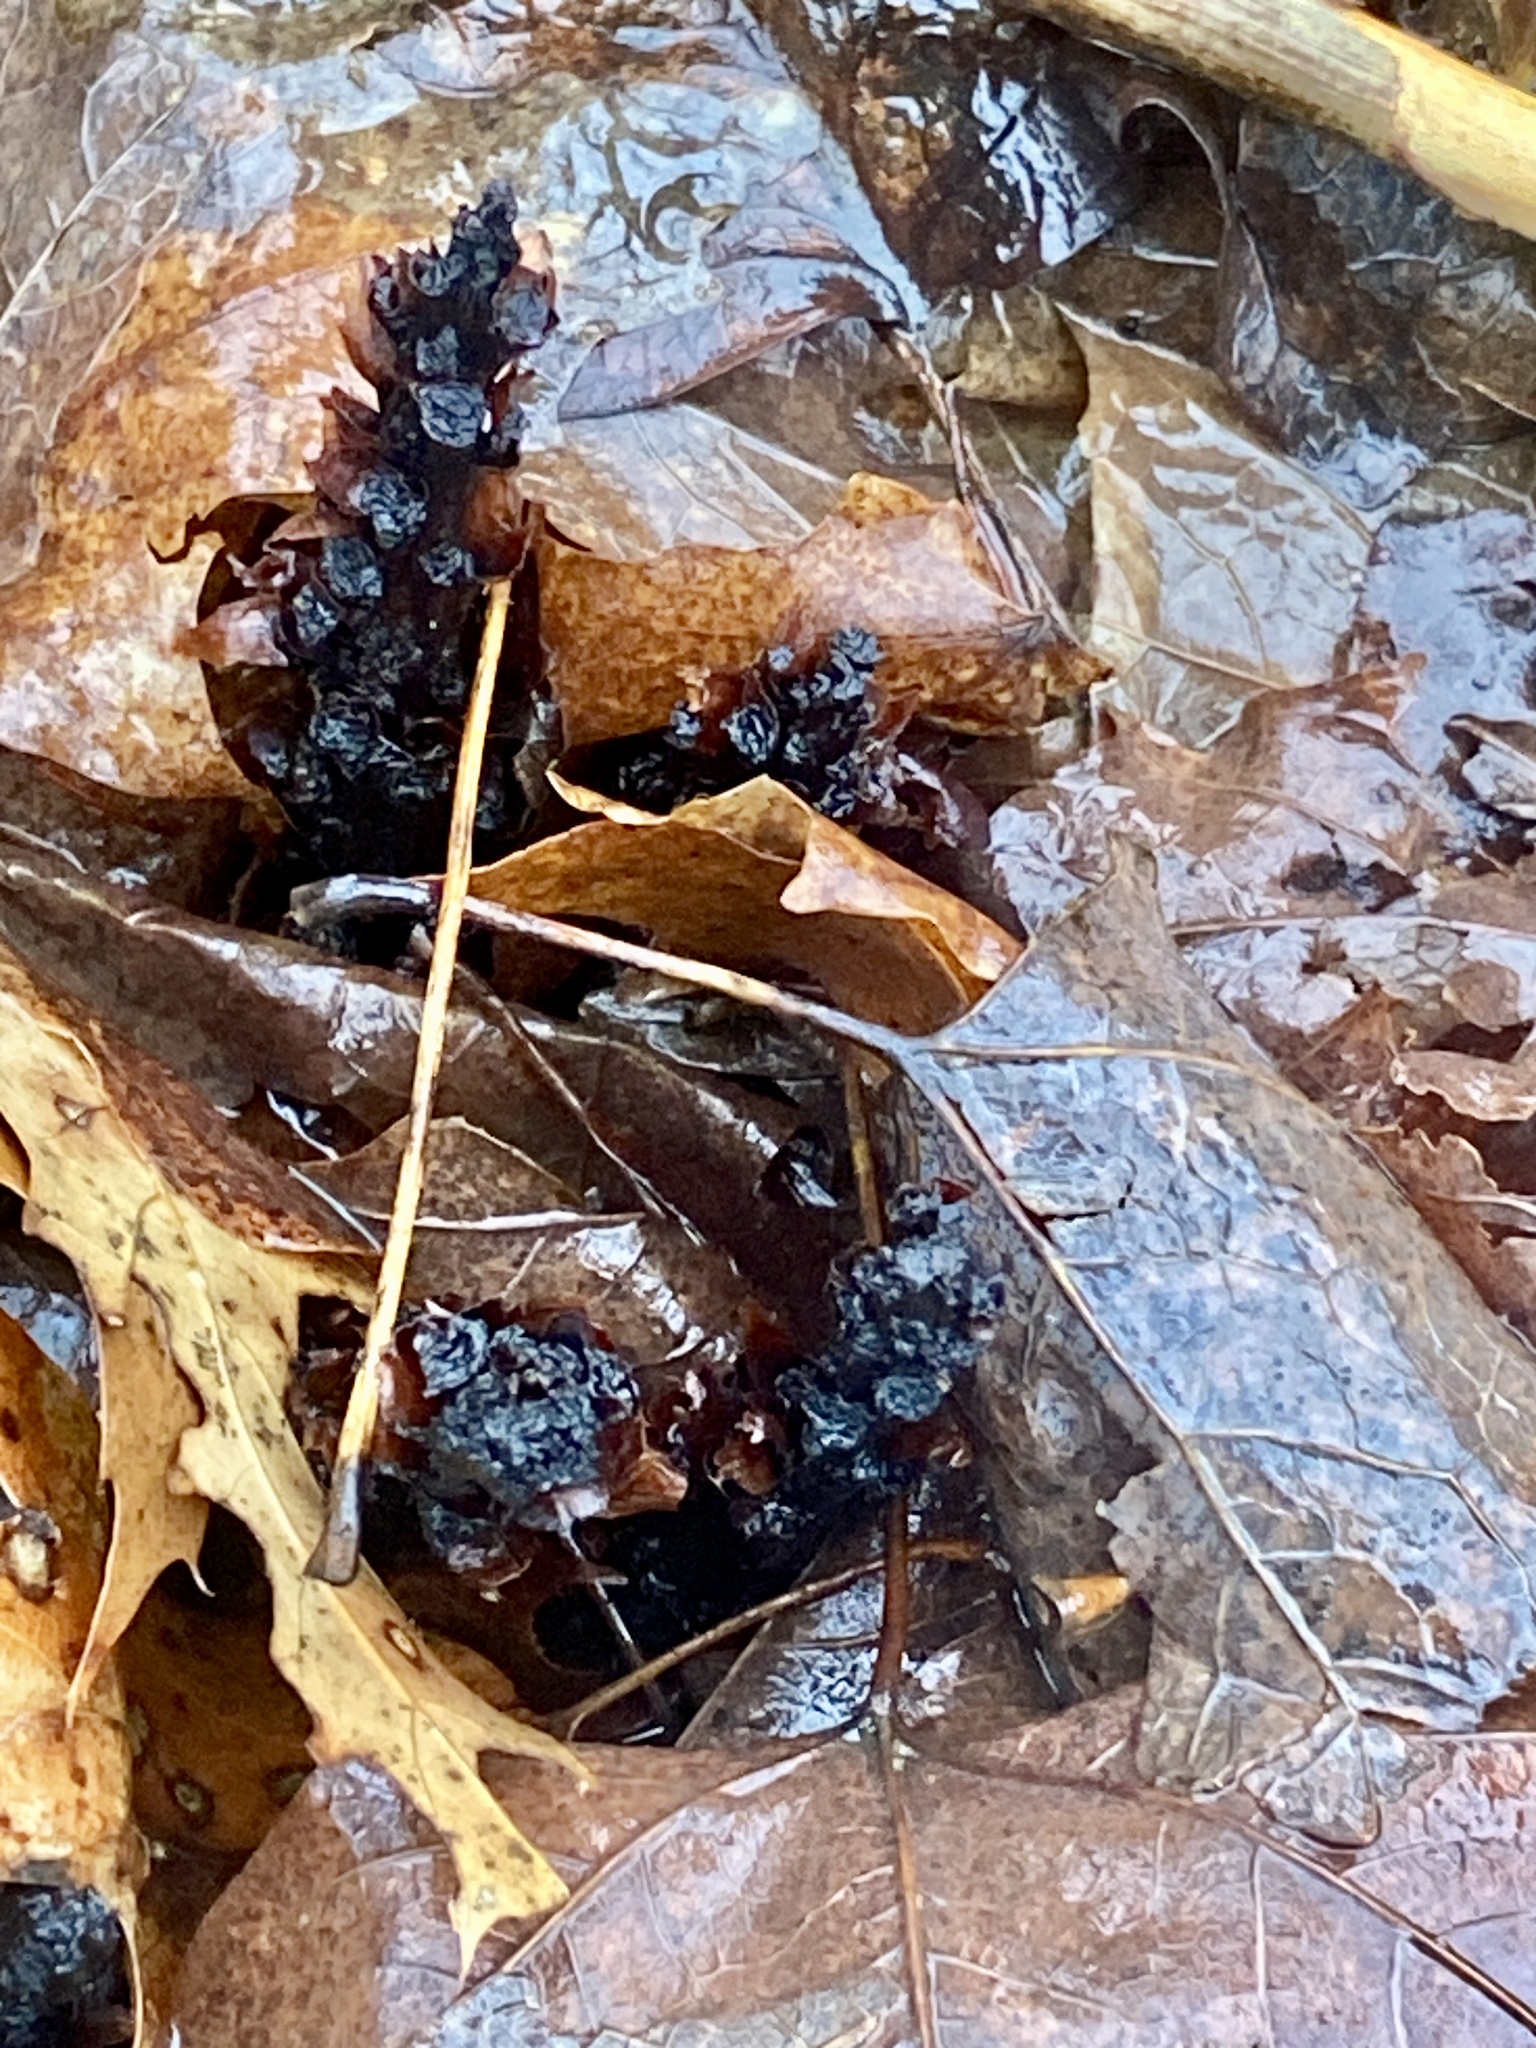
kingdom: Plantae
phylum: Tracheophyta
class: Magnoliopsida
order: Lamiales
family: Orobanchaceae
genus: Conopholis
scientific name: Conopholis americana
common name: American cancer-root
